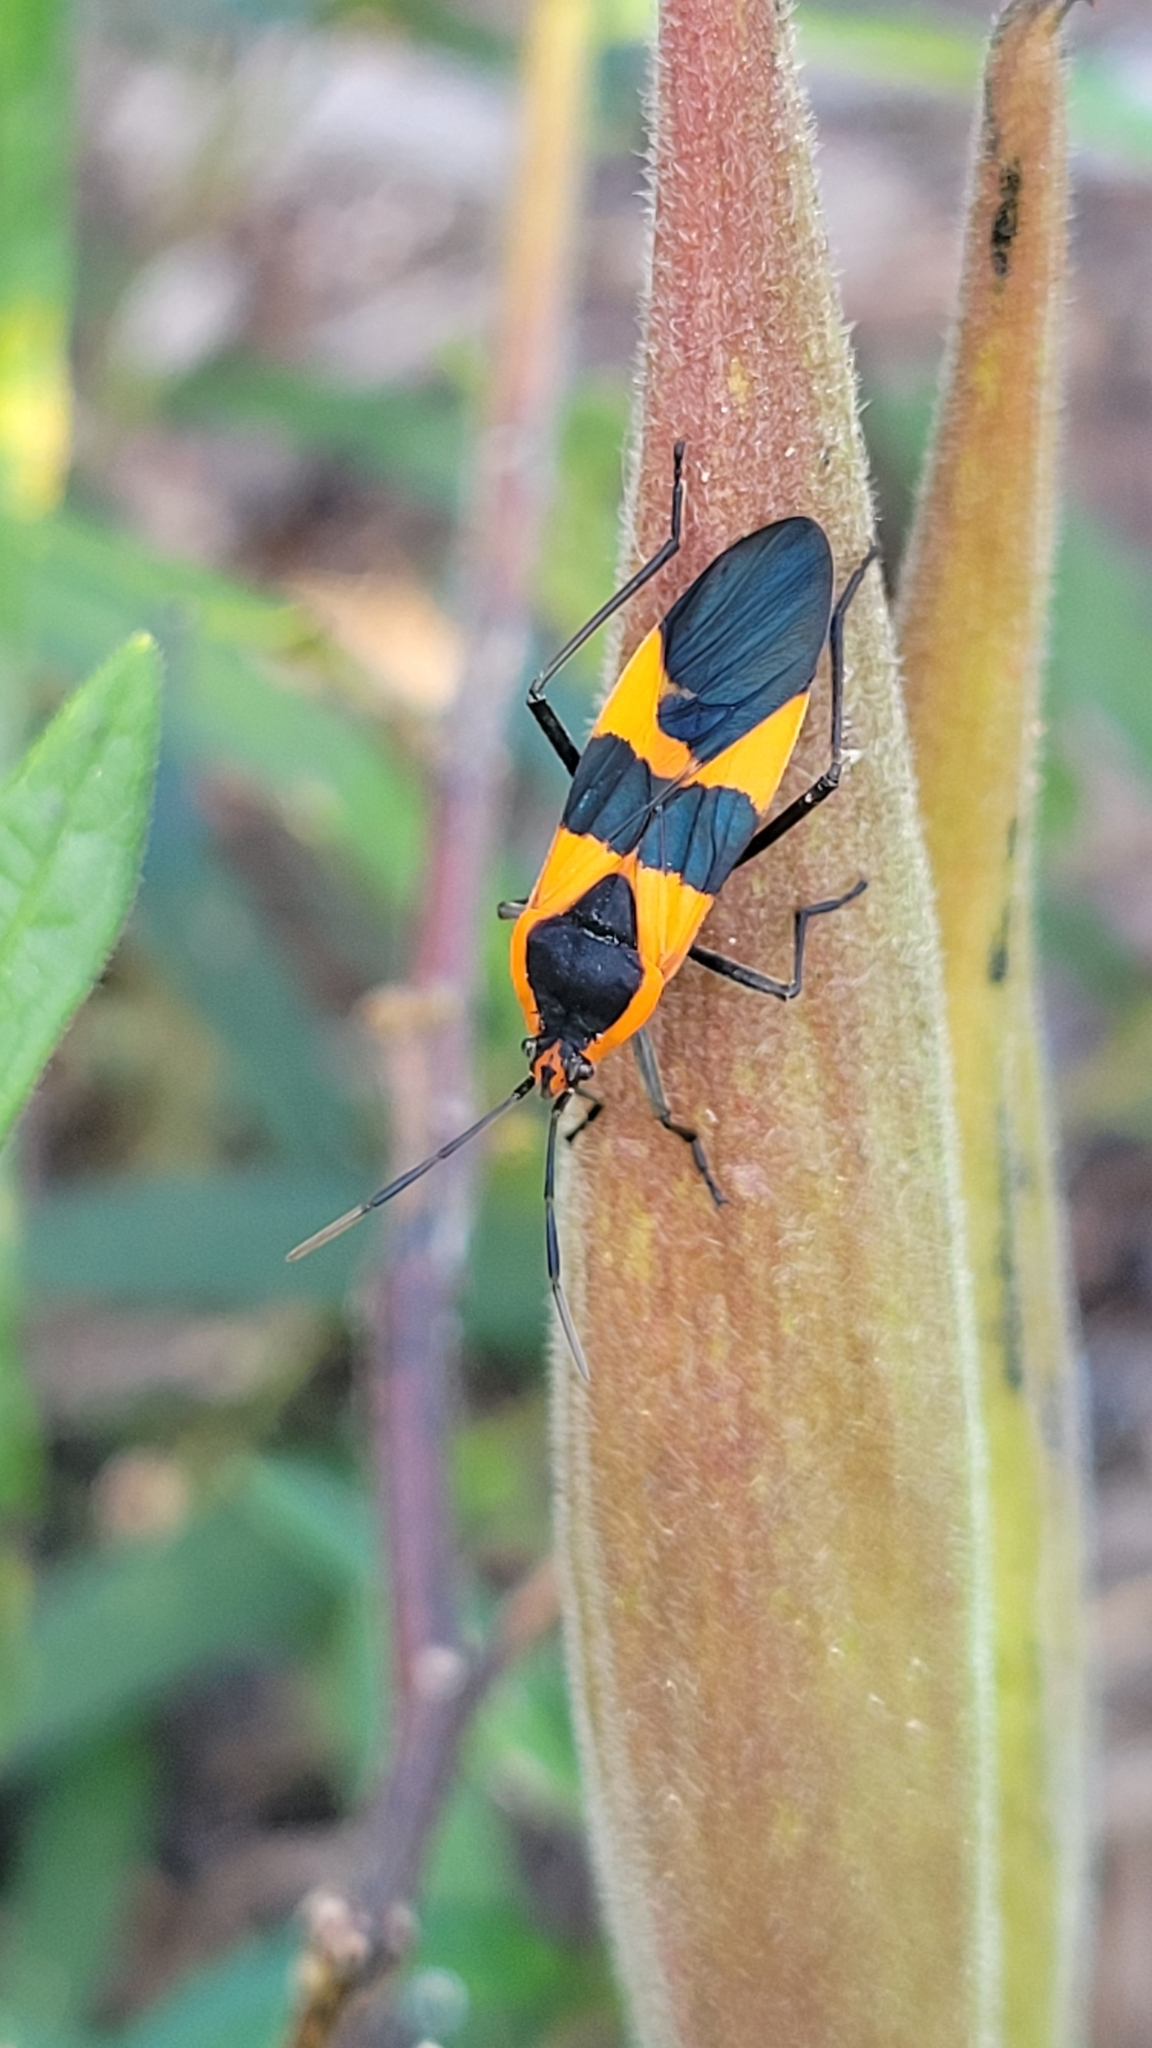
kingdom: Animalia
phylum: Arthropoda
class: Insecta
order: Hemiptera
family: Lygaeidae
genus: Oncopeltus
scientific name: Oncopeltus fasciatus
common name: Large milkweed bug
